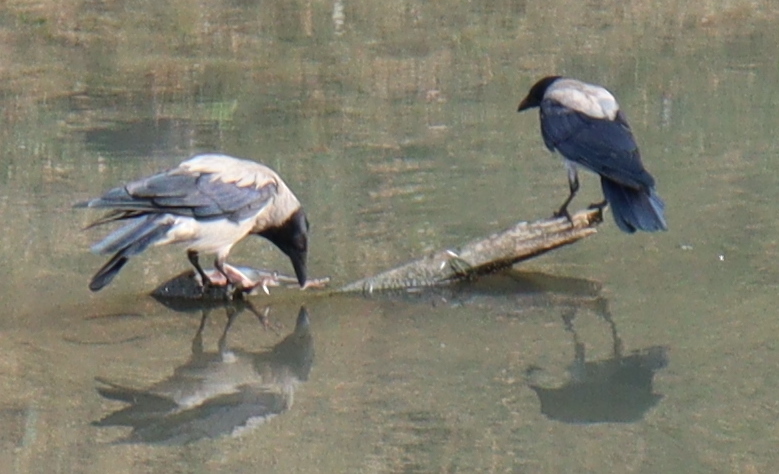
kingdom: Animalia
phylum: Chordata
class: Aves
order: Passeriformes
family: Corvidae
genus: Corvus
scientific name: Corvus cornix
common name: Hooded crow
